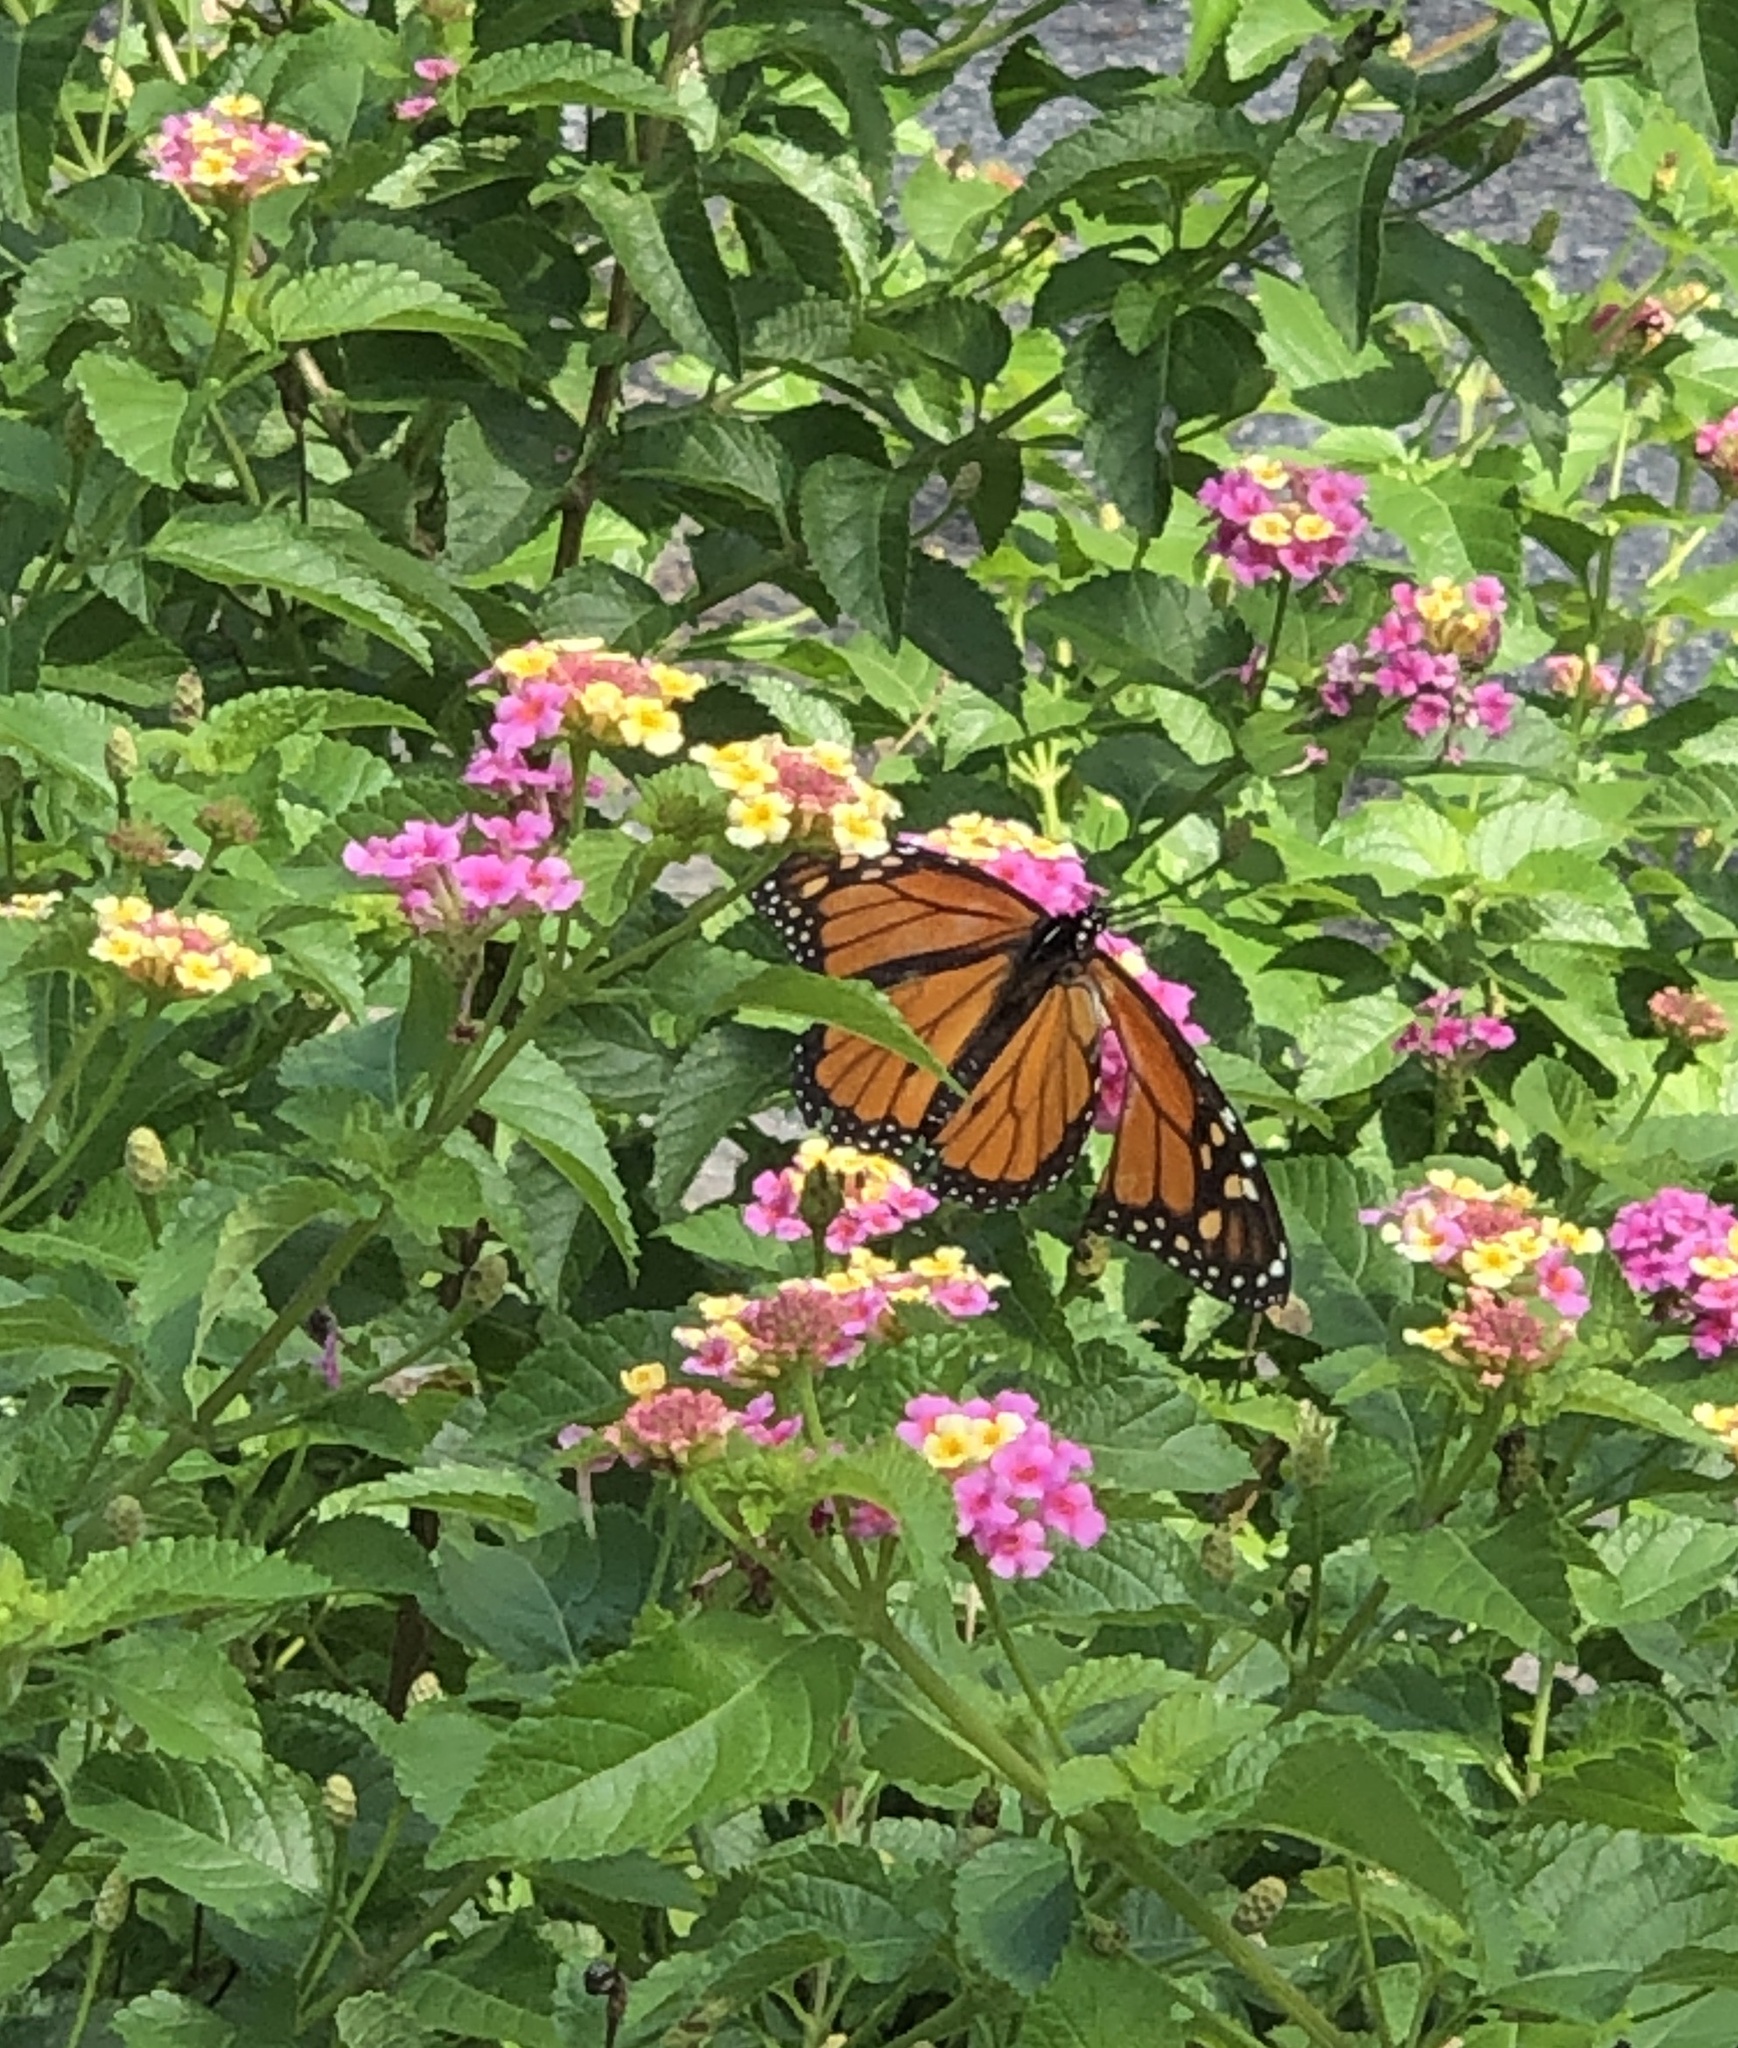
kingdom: Animalia
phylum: Arthropoda
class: Insecta
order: Lepidoptera
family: Nymphalidae
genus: Danaus
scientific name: Danaus plexippus
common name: Monarch
